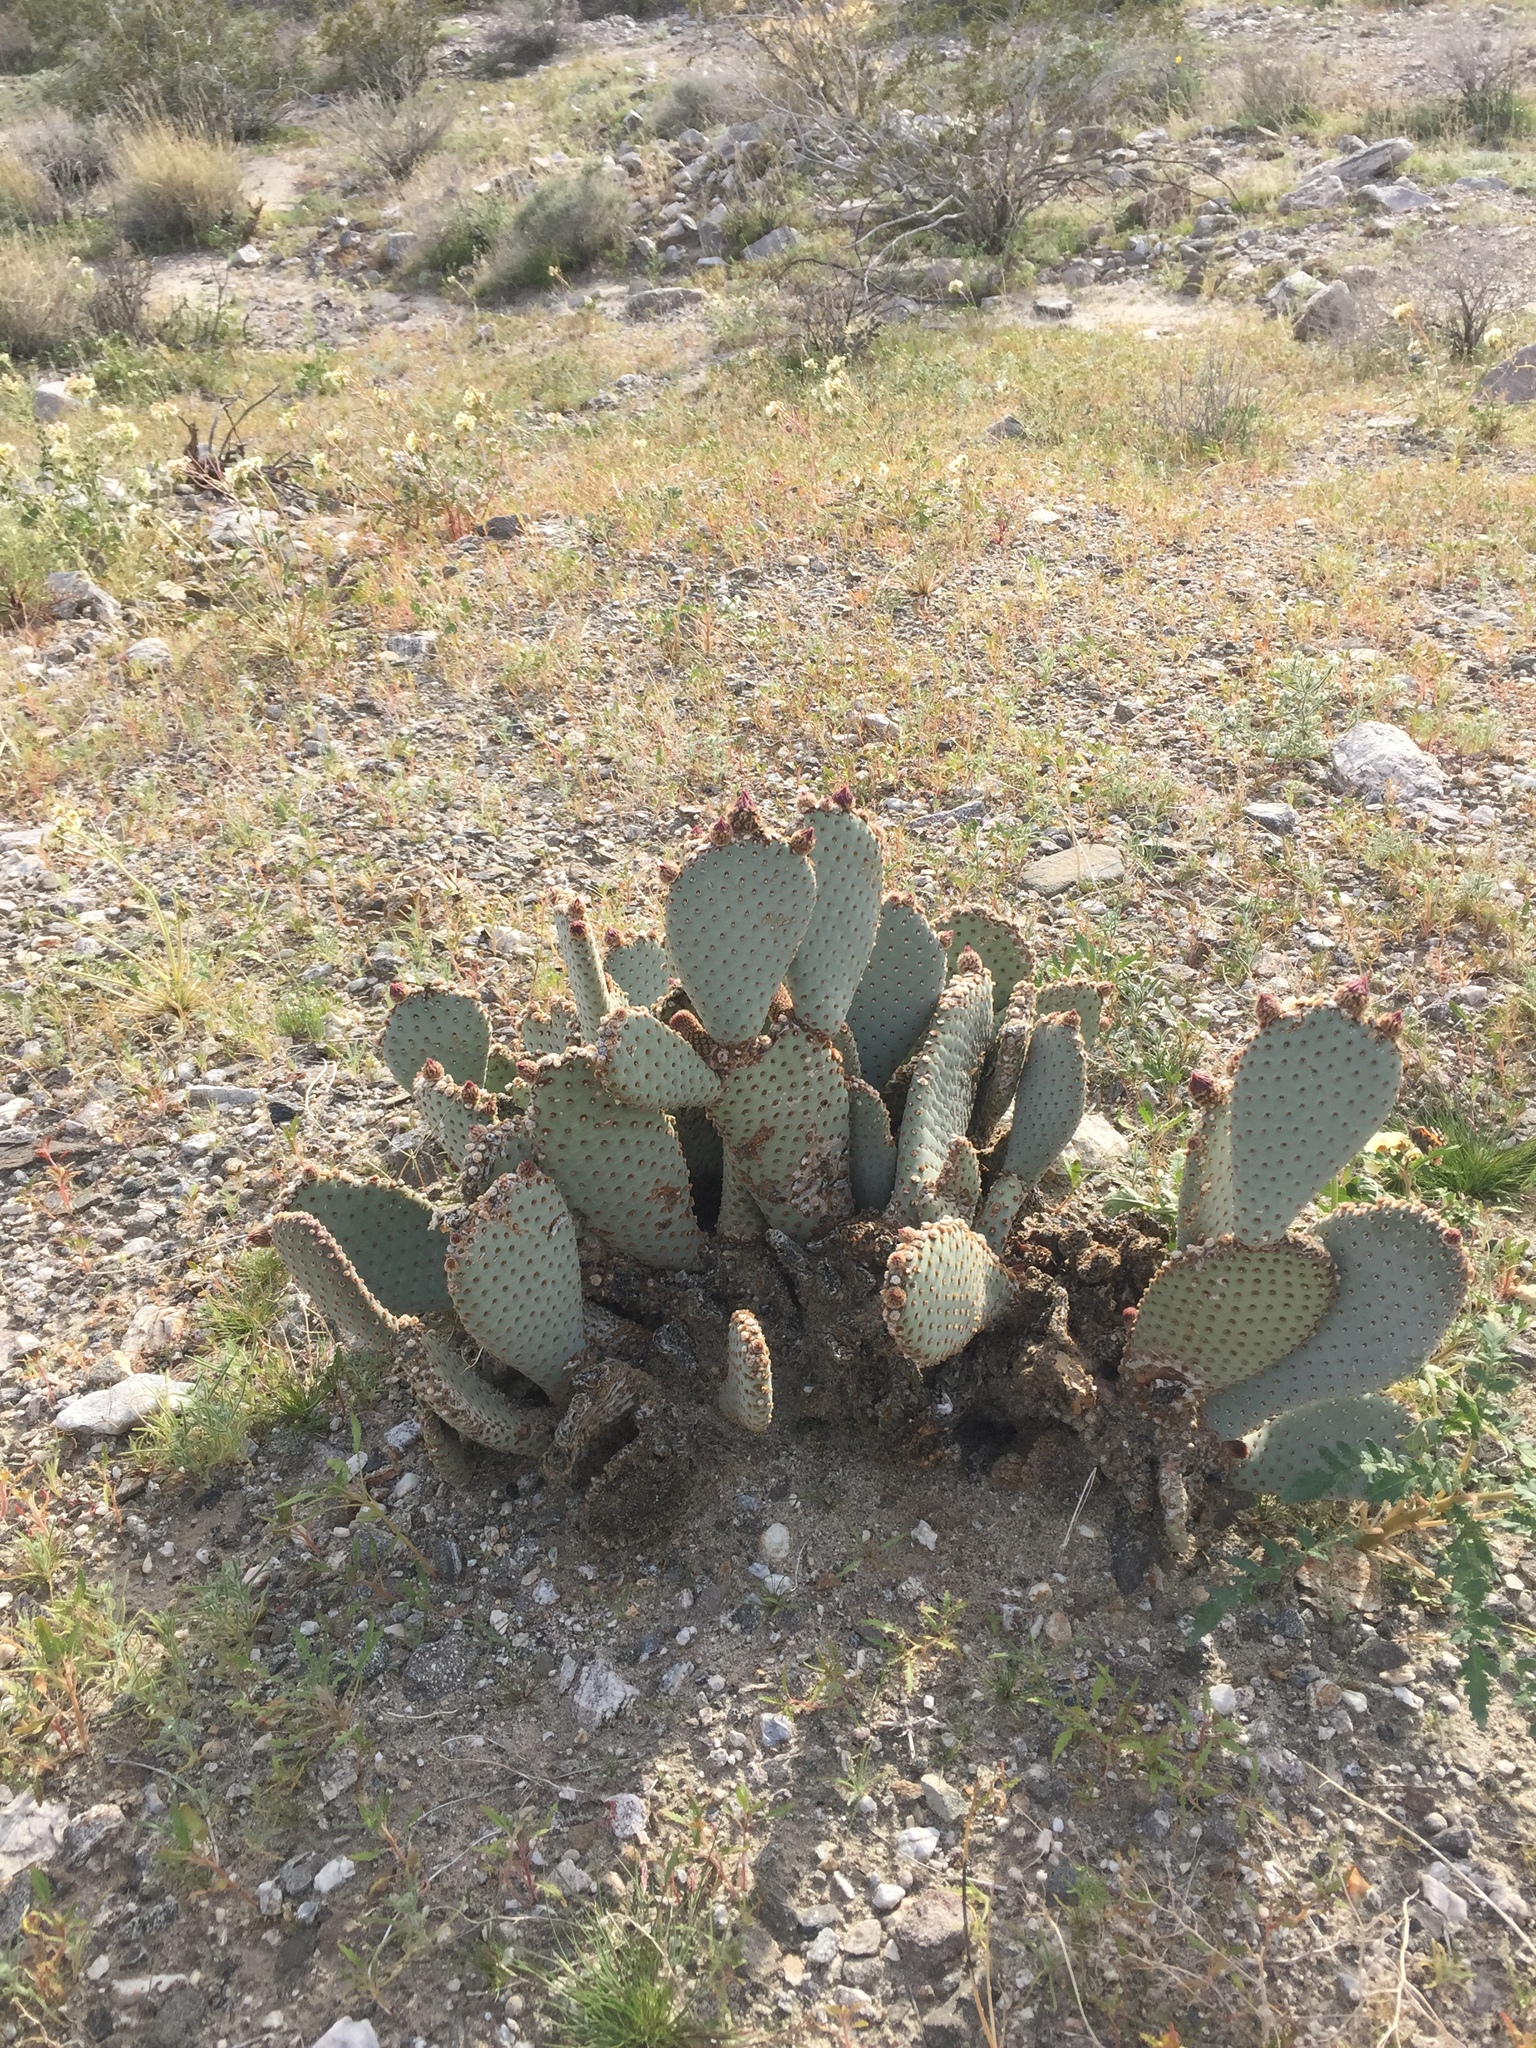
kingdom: Plantae
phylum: Tracheophyta
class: Magnoliopsida
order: Caryophyllales
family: Cactaceae
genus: Opuntia
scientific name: Opuntia basilaris
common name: Beavertail prickly-pear
